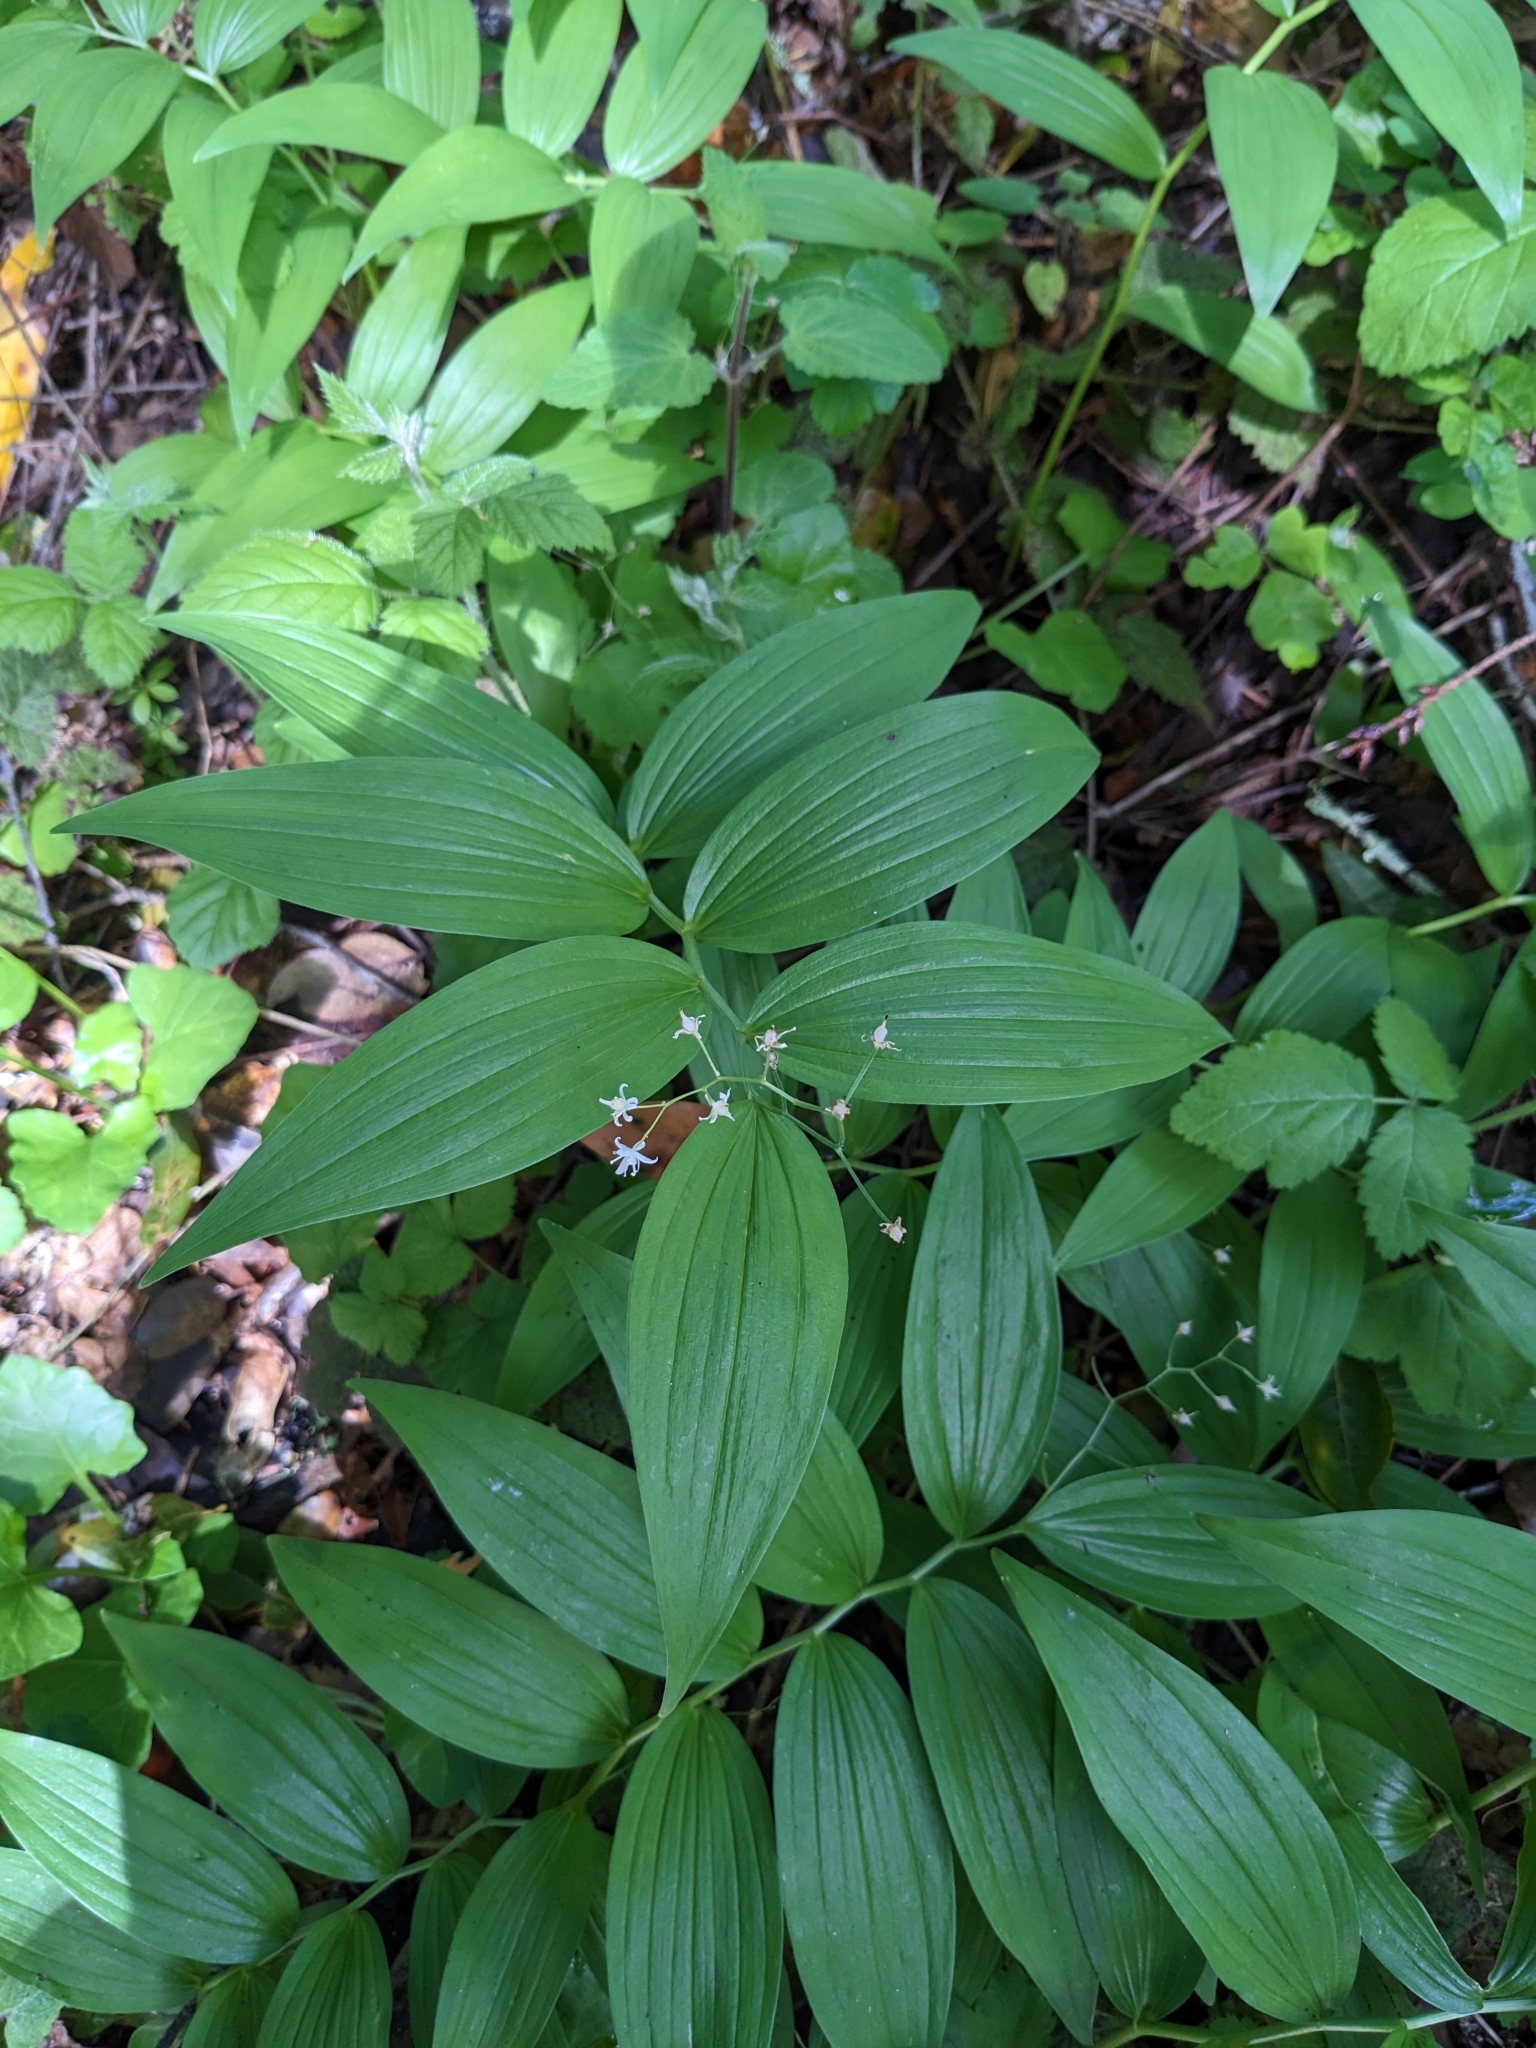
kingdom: Plantae
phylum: Tracheophyta
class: Liliopsida
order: Asparagales
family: Asparagaceae
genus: Maianthemum
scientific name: Maianthemum stellatum
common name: Little false solomon's seal
